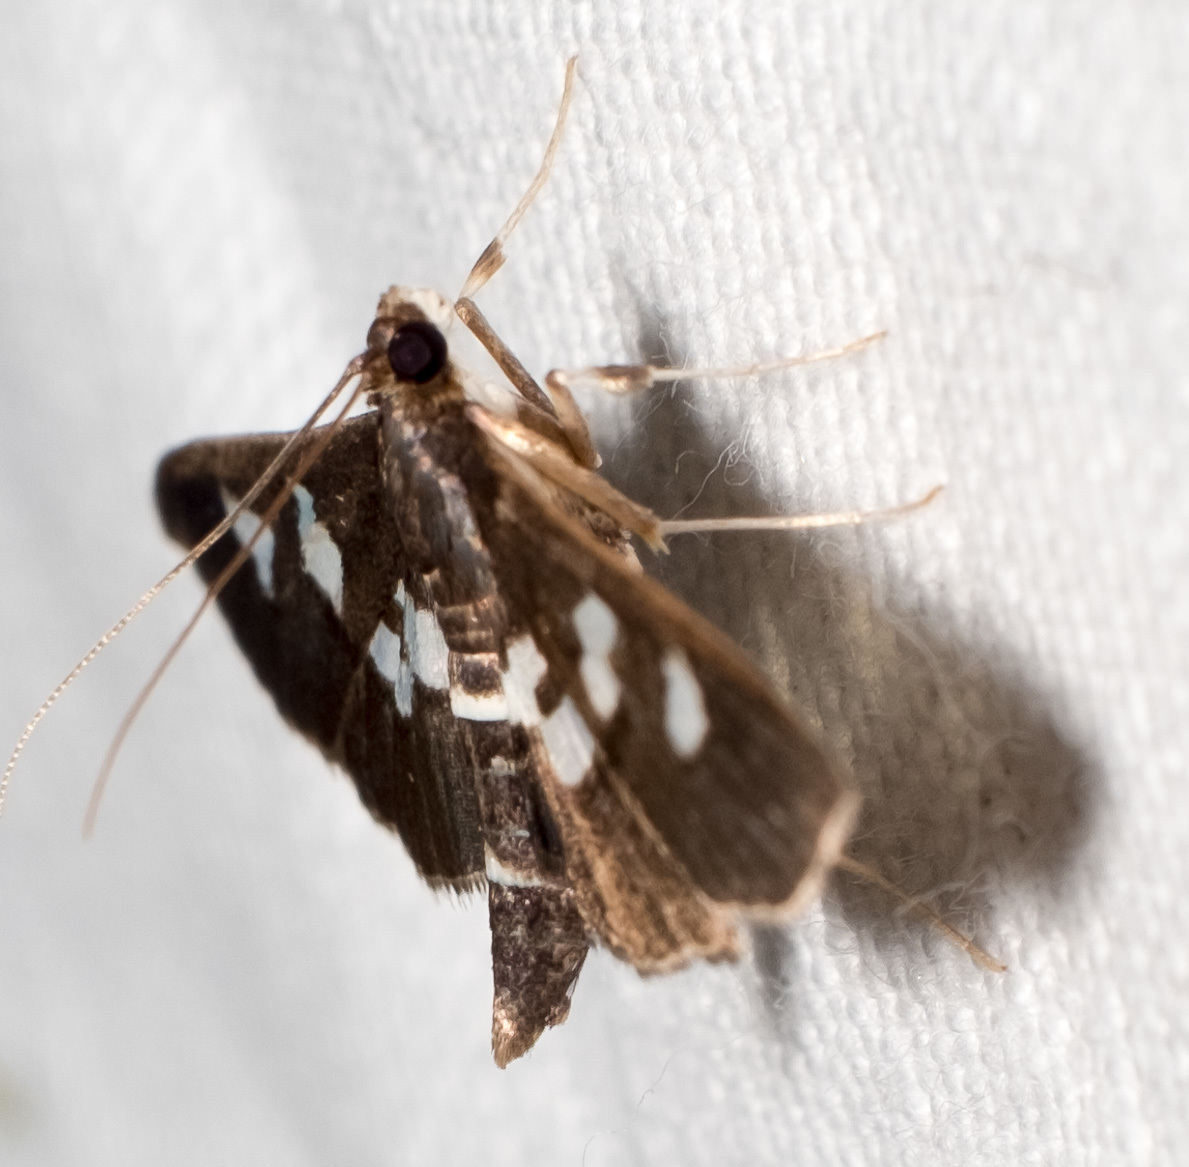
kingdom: Animalia
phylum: Arthropoda
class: Insecta
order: Lepidoptera
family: Crambidae
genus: Desmia
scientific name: Desmia
